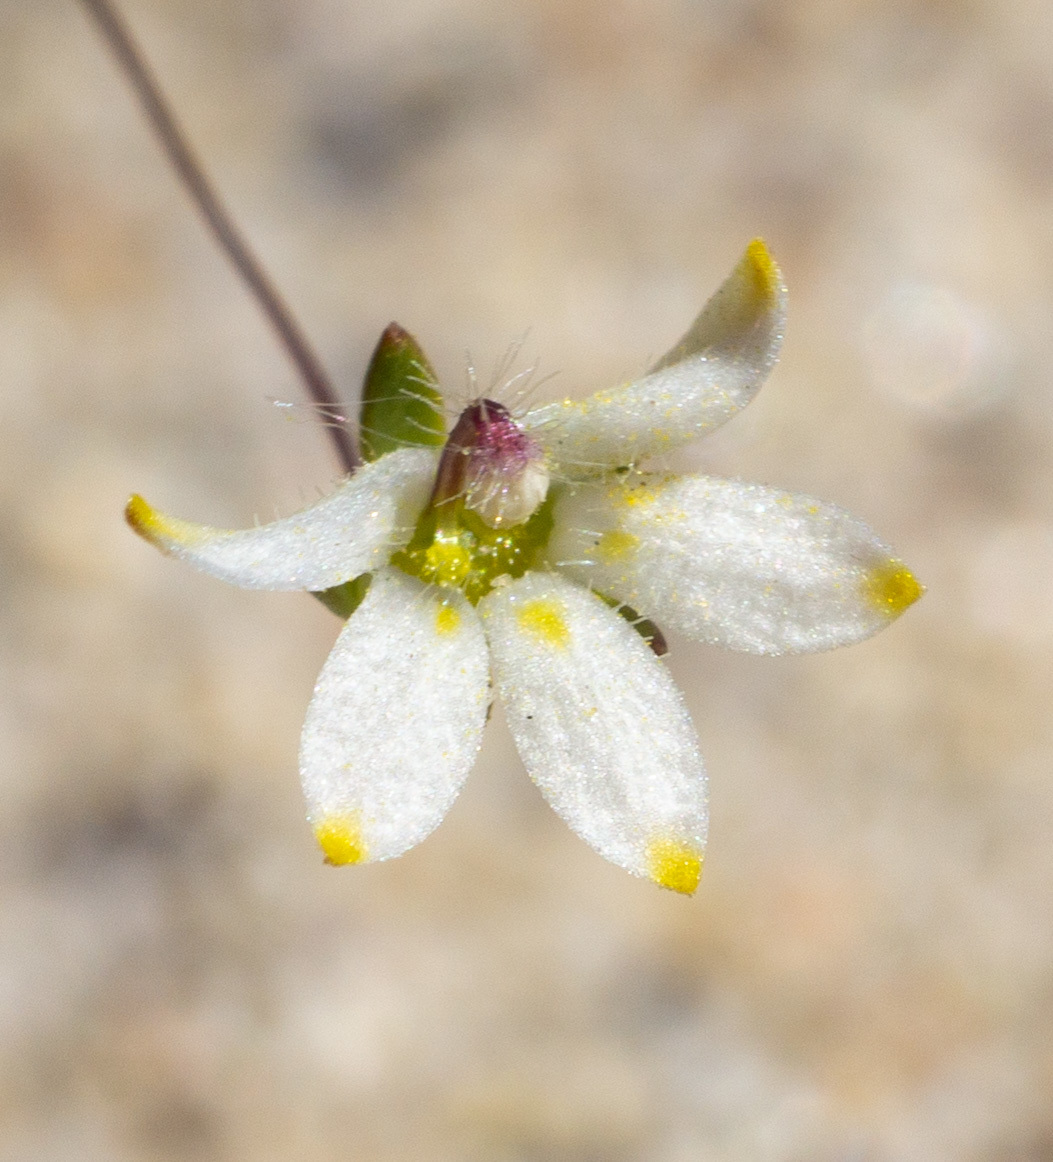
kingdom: Plantae
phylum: Tracheophyta
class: Magnoliopsida
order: Asterales
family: Campanulaceae
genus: Nemacladus
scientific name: Nemacladus matsonii
